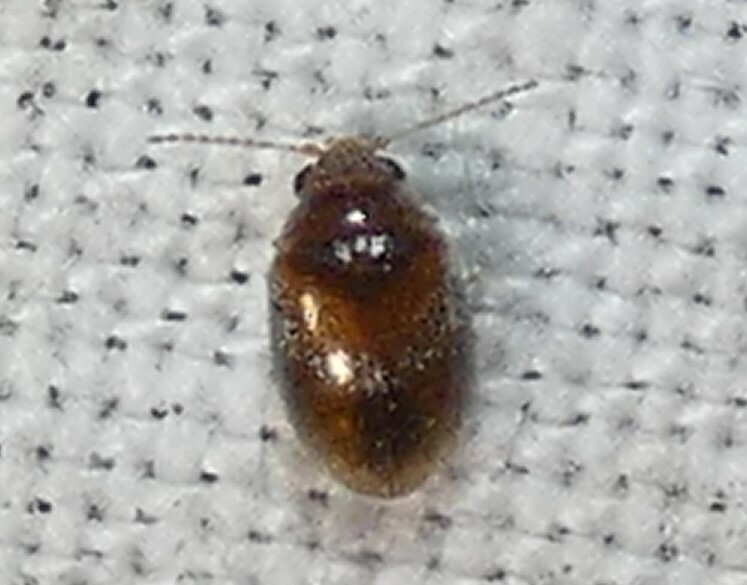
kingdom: Animalia
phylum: Arthropoda
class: Insecta
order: Coleoptera
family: Scirtidae
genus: Contacyphon
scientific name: Contacyphon
